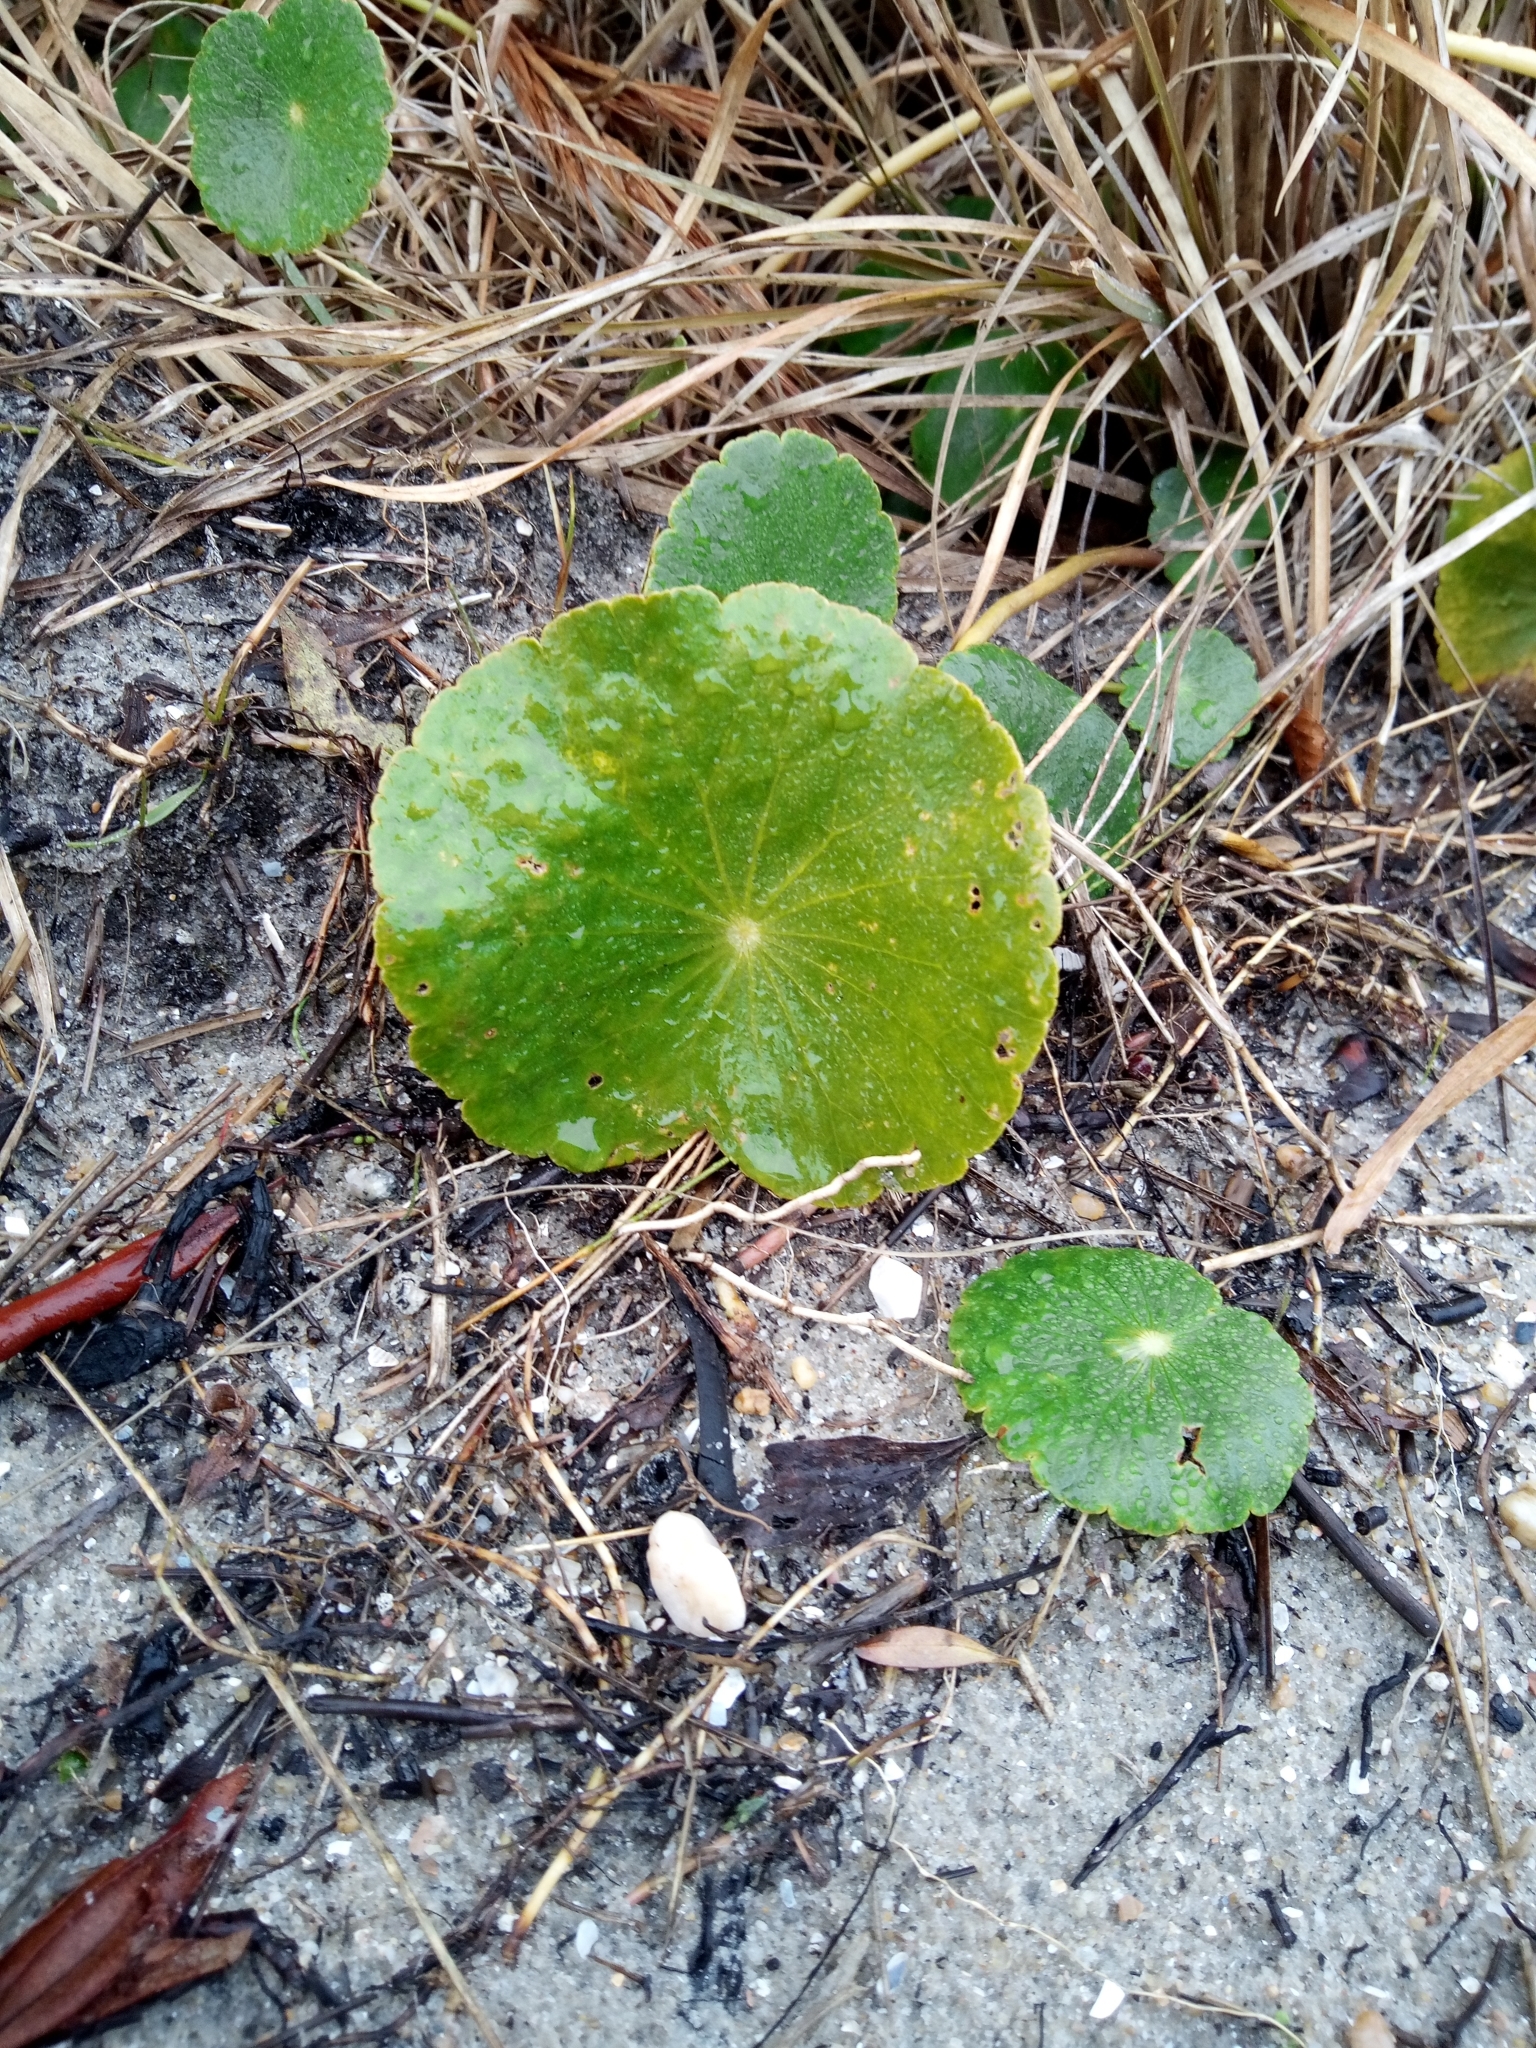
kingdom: Plantae
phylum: Tracheophyta
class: Magnoliopsida
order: Apiales
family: Araliaceae
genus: Hydrocotyle
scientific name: Hydrocotyle bonariensis
